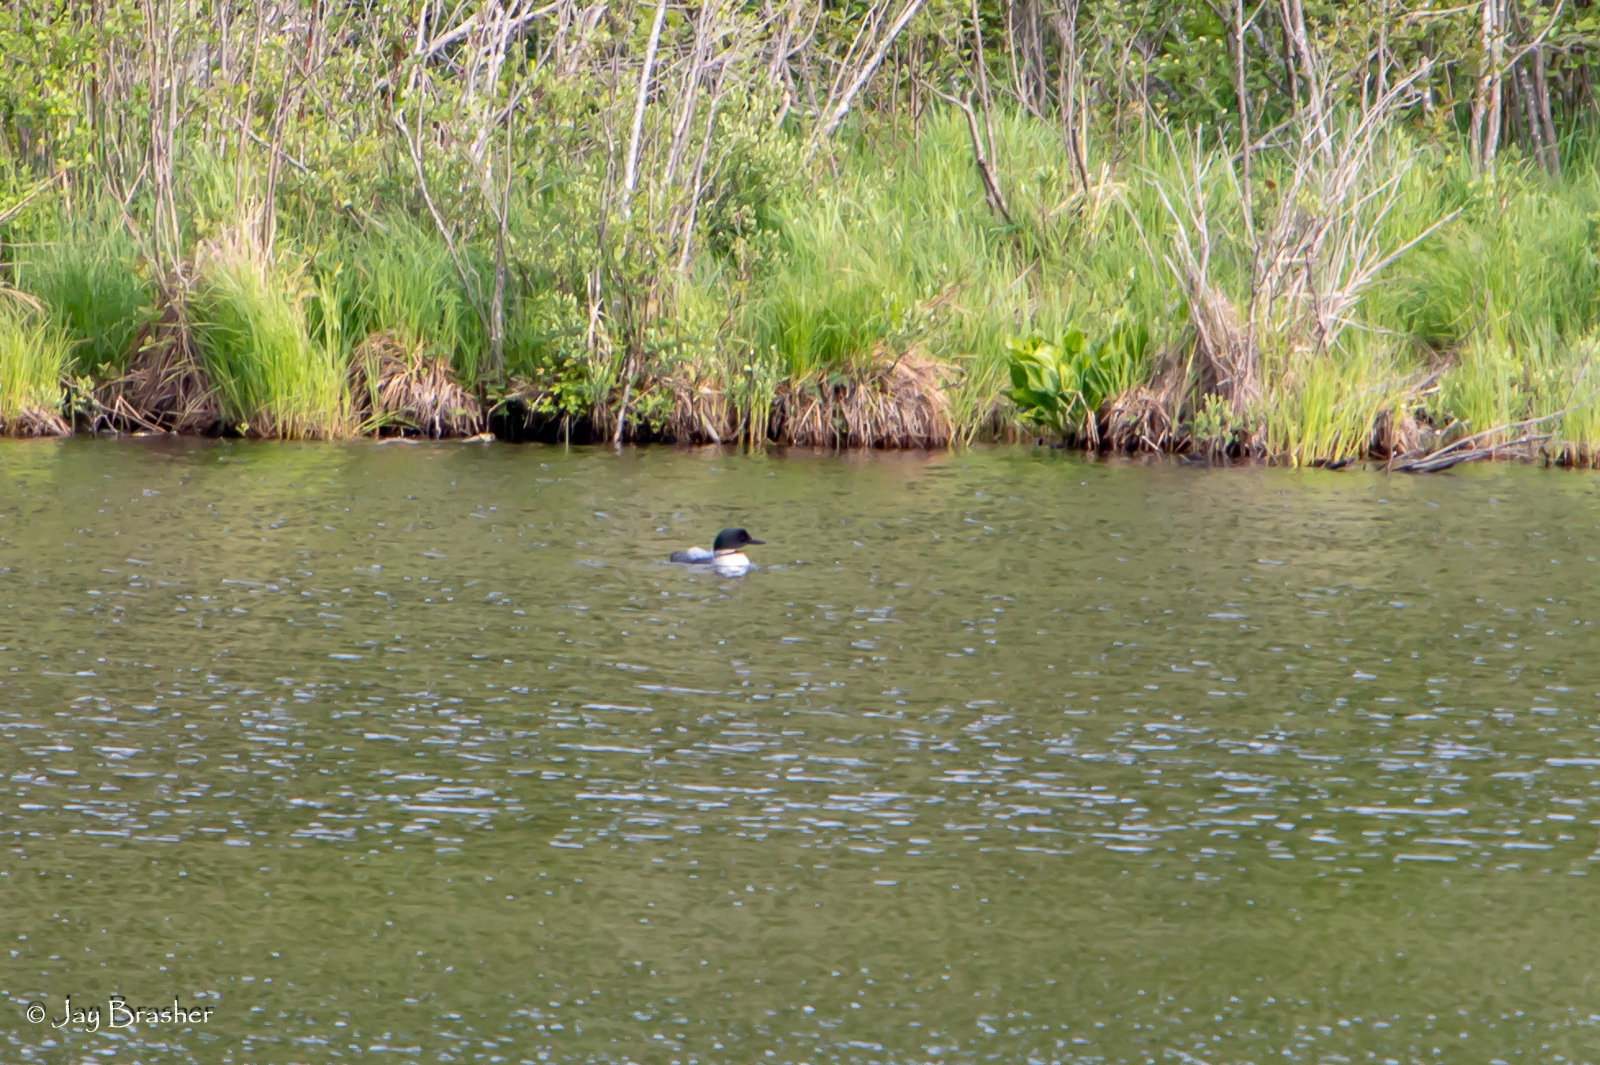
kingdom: Animalia
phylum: Chordata
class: Aves
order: Gaviiformes
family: Gaviidae
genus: Gavia
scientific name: Gavia immer
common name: Common loon
